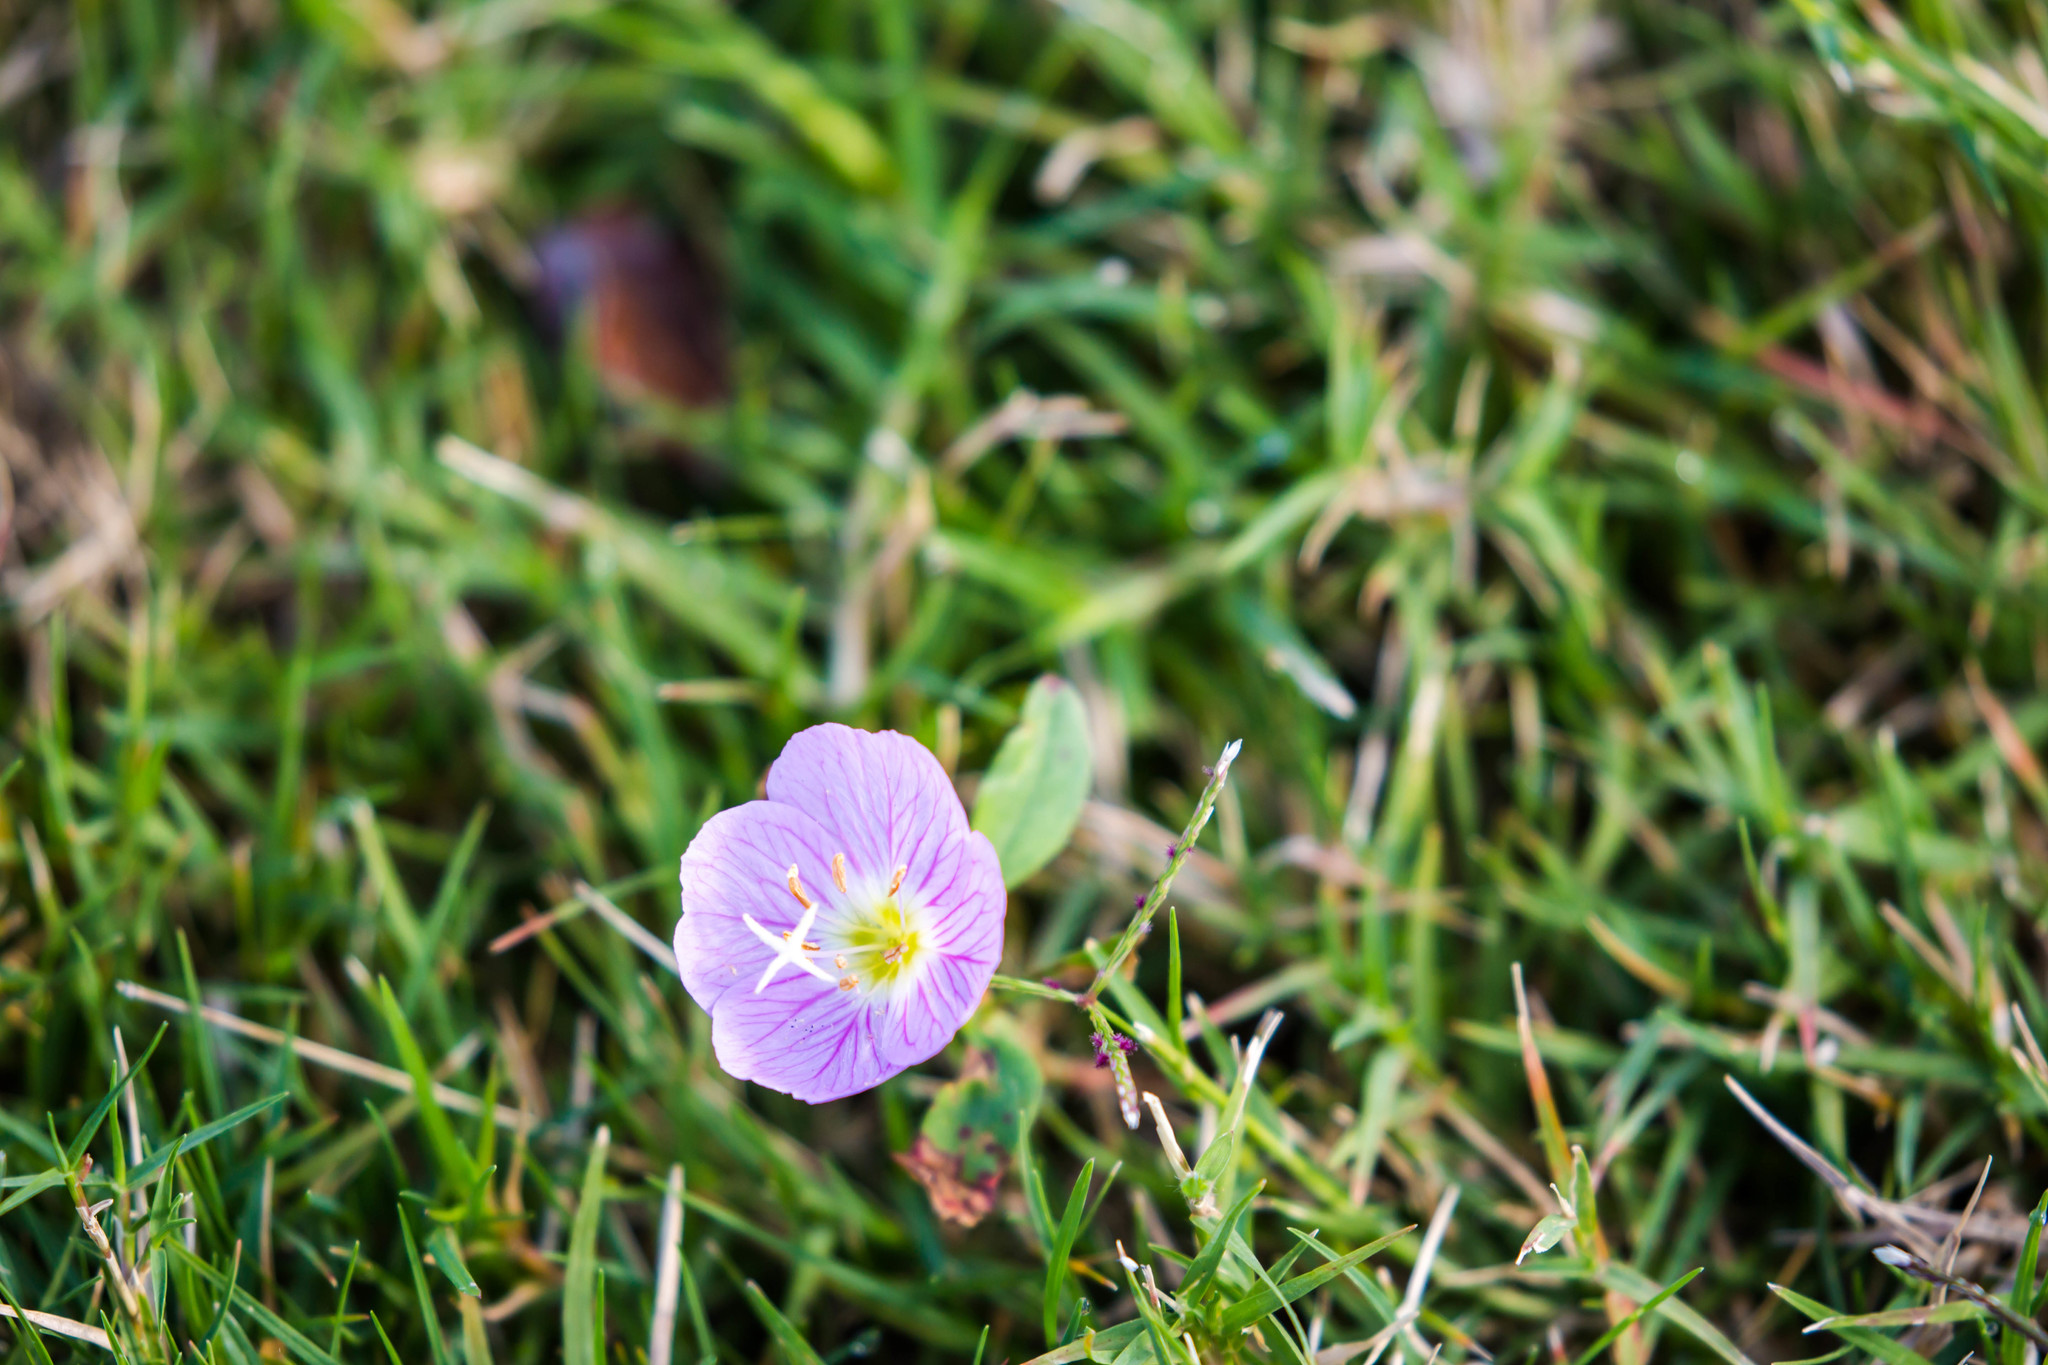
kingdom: Plantae
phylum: Tracheophyta
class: Magnoliopsida
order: Myrtales
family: Onagraceae
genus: Oenothera
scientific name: Oenothera speciosa
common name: White evening-primrose
